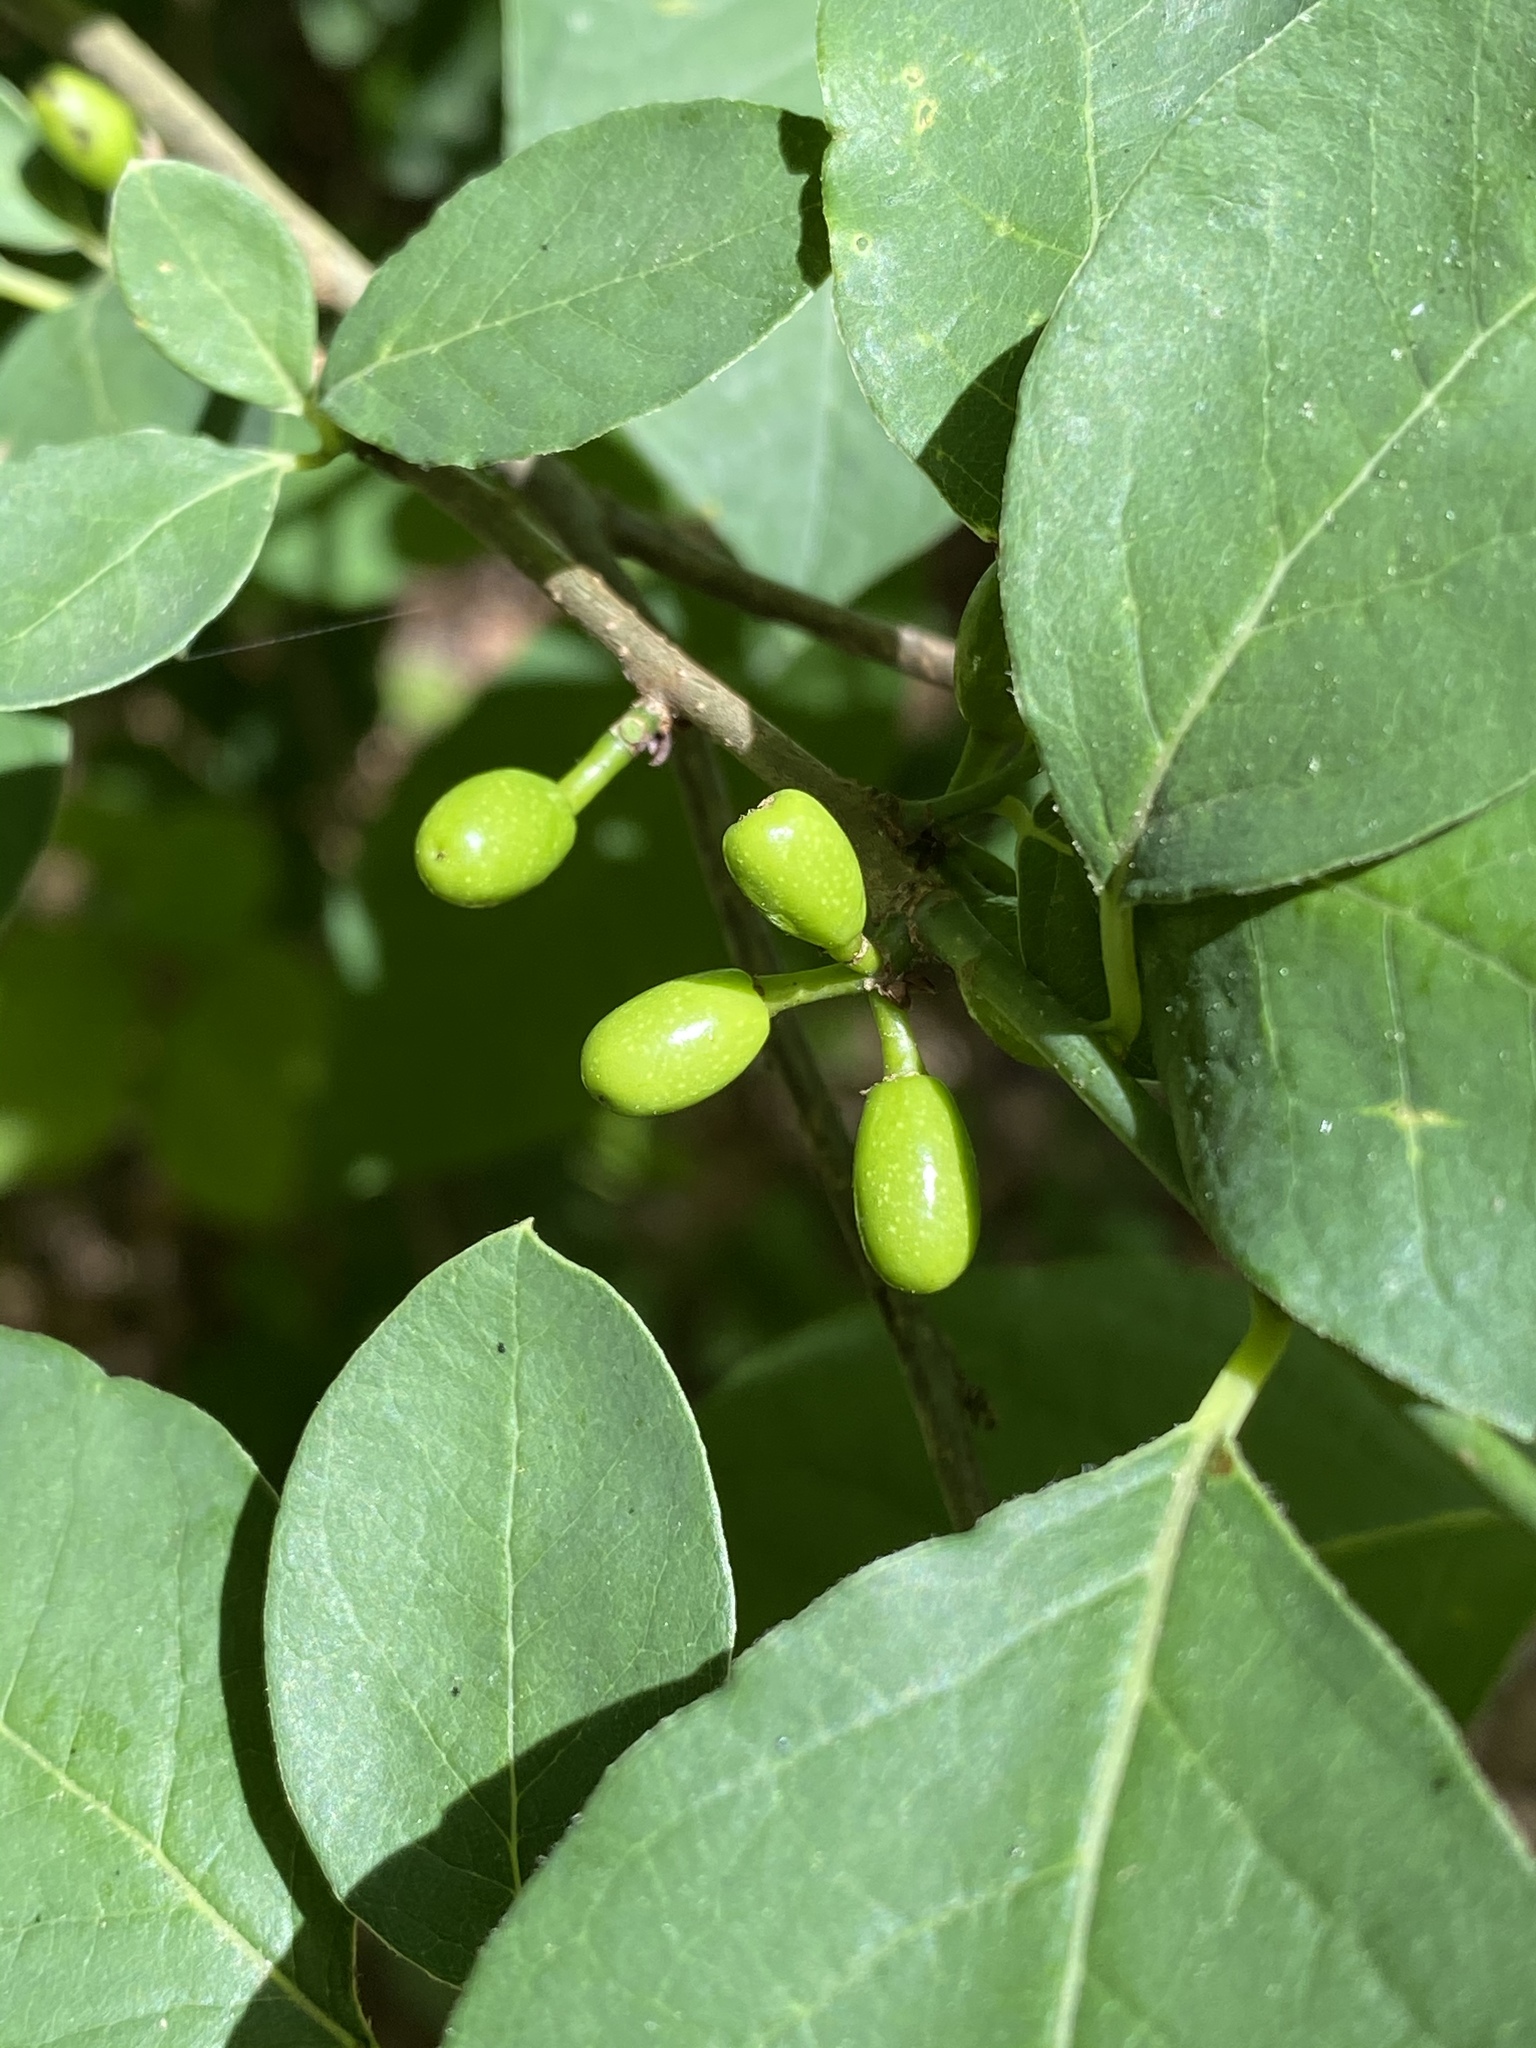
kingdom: Plantae
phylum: Tracheophyta
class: Magnoliopsida
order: Laurales
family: Lauraceae
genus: Lindera
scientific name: Lindera benzoin
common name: Spicebush
